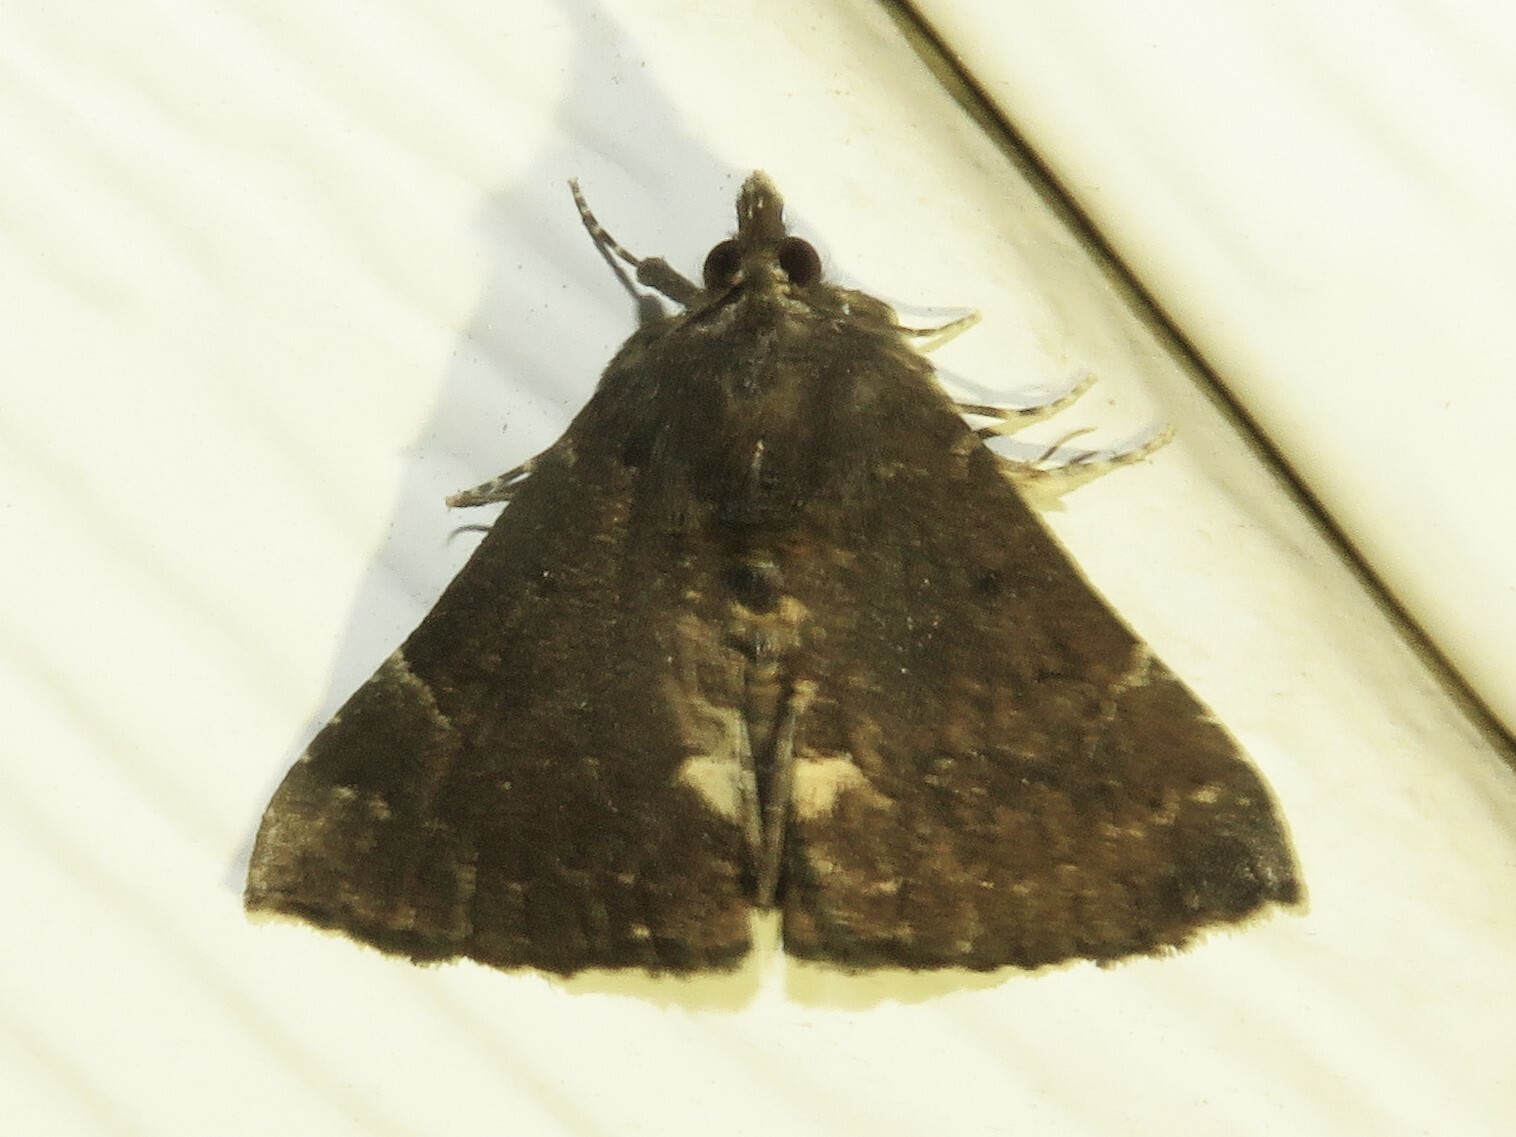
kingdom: Animalia
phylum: Arthropoda
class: Insecta
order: Lepidoptera
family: Erebidae
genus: Hypena
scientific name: Hypena bijugalis
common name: Dimorphic bomolocha moth
